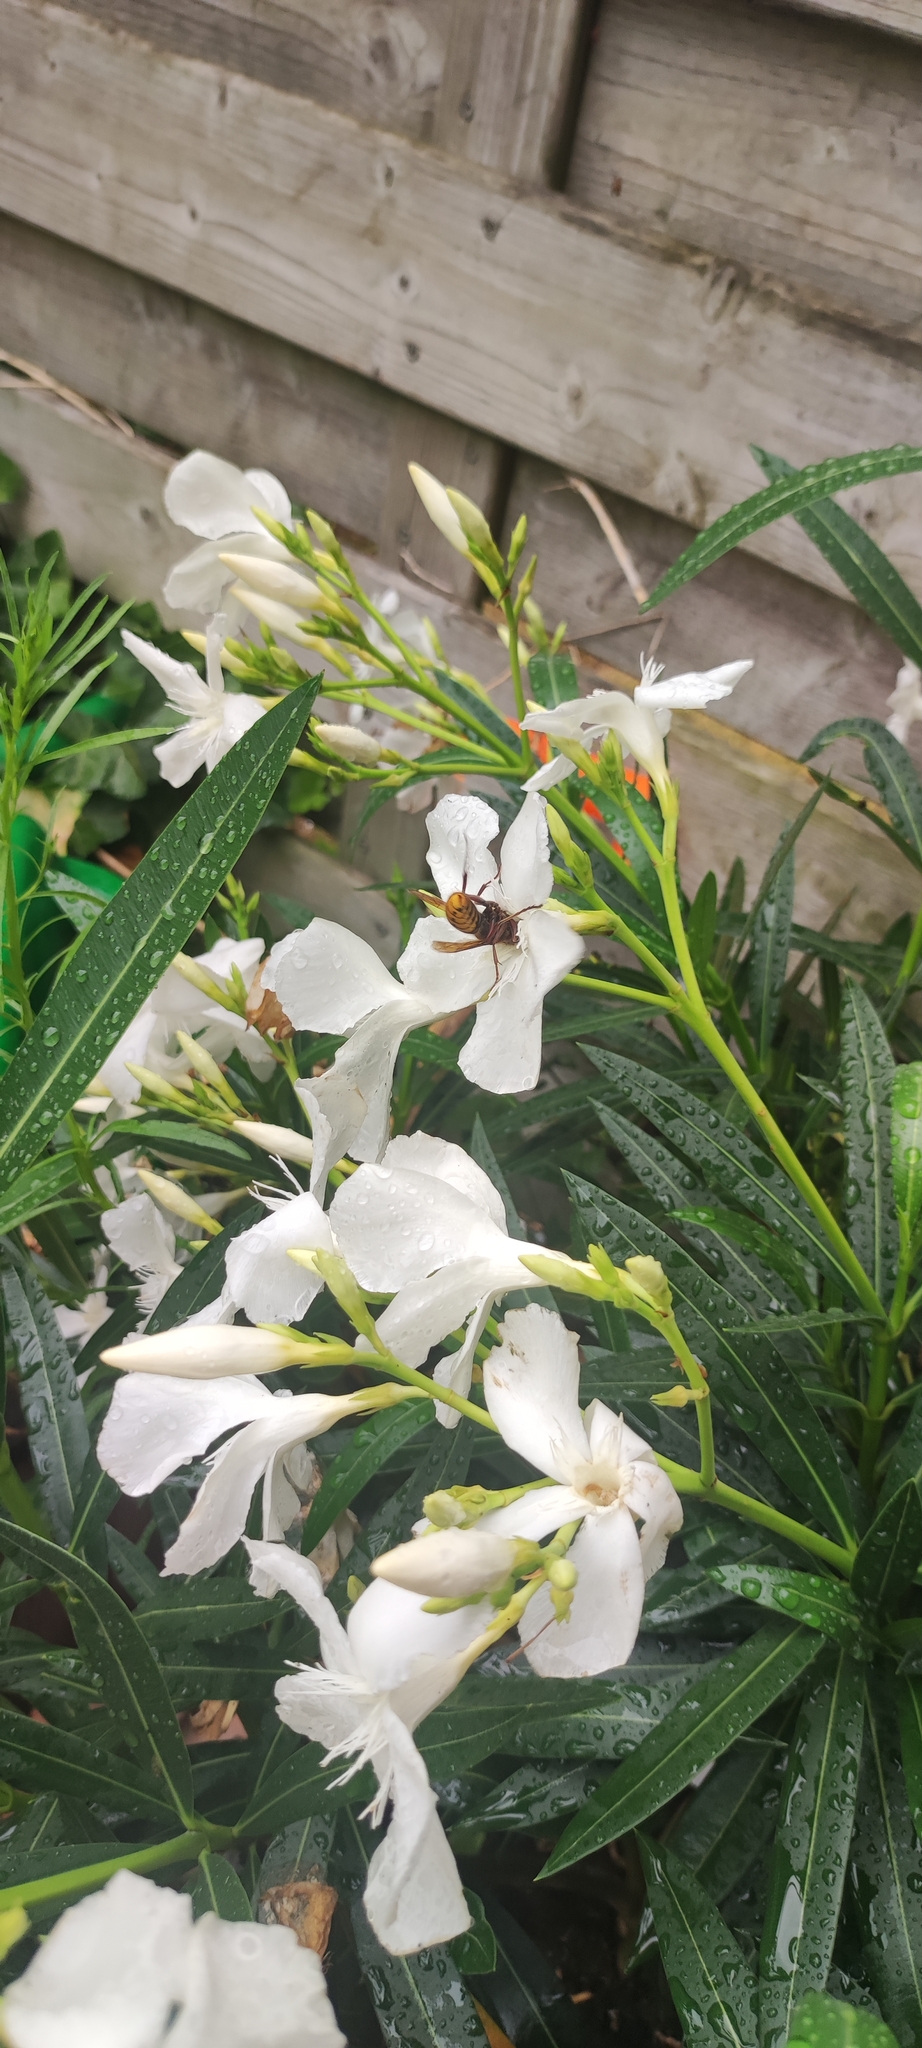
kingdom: Animalia
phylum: Arthropoda
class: Insecta
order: Hymenoptera
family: Vespidae
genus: Vespa
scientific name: Vespa crabro
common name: Hornet
